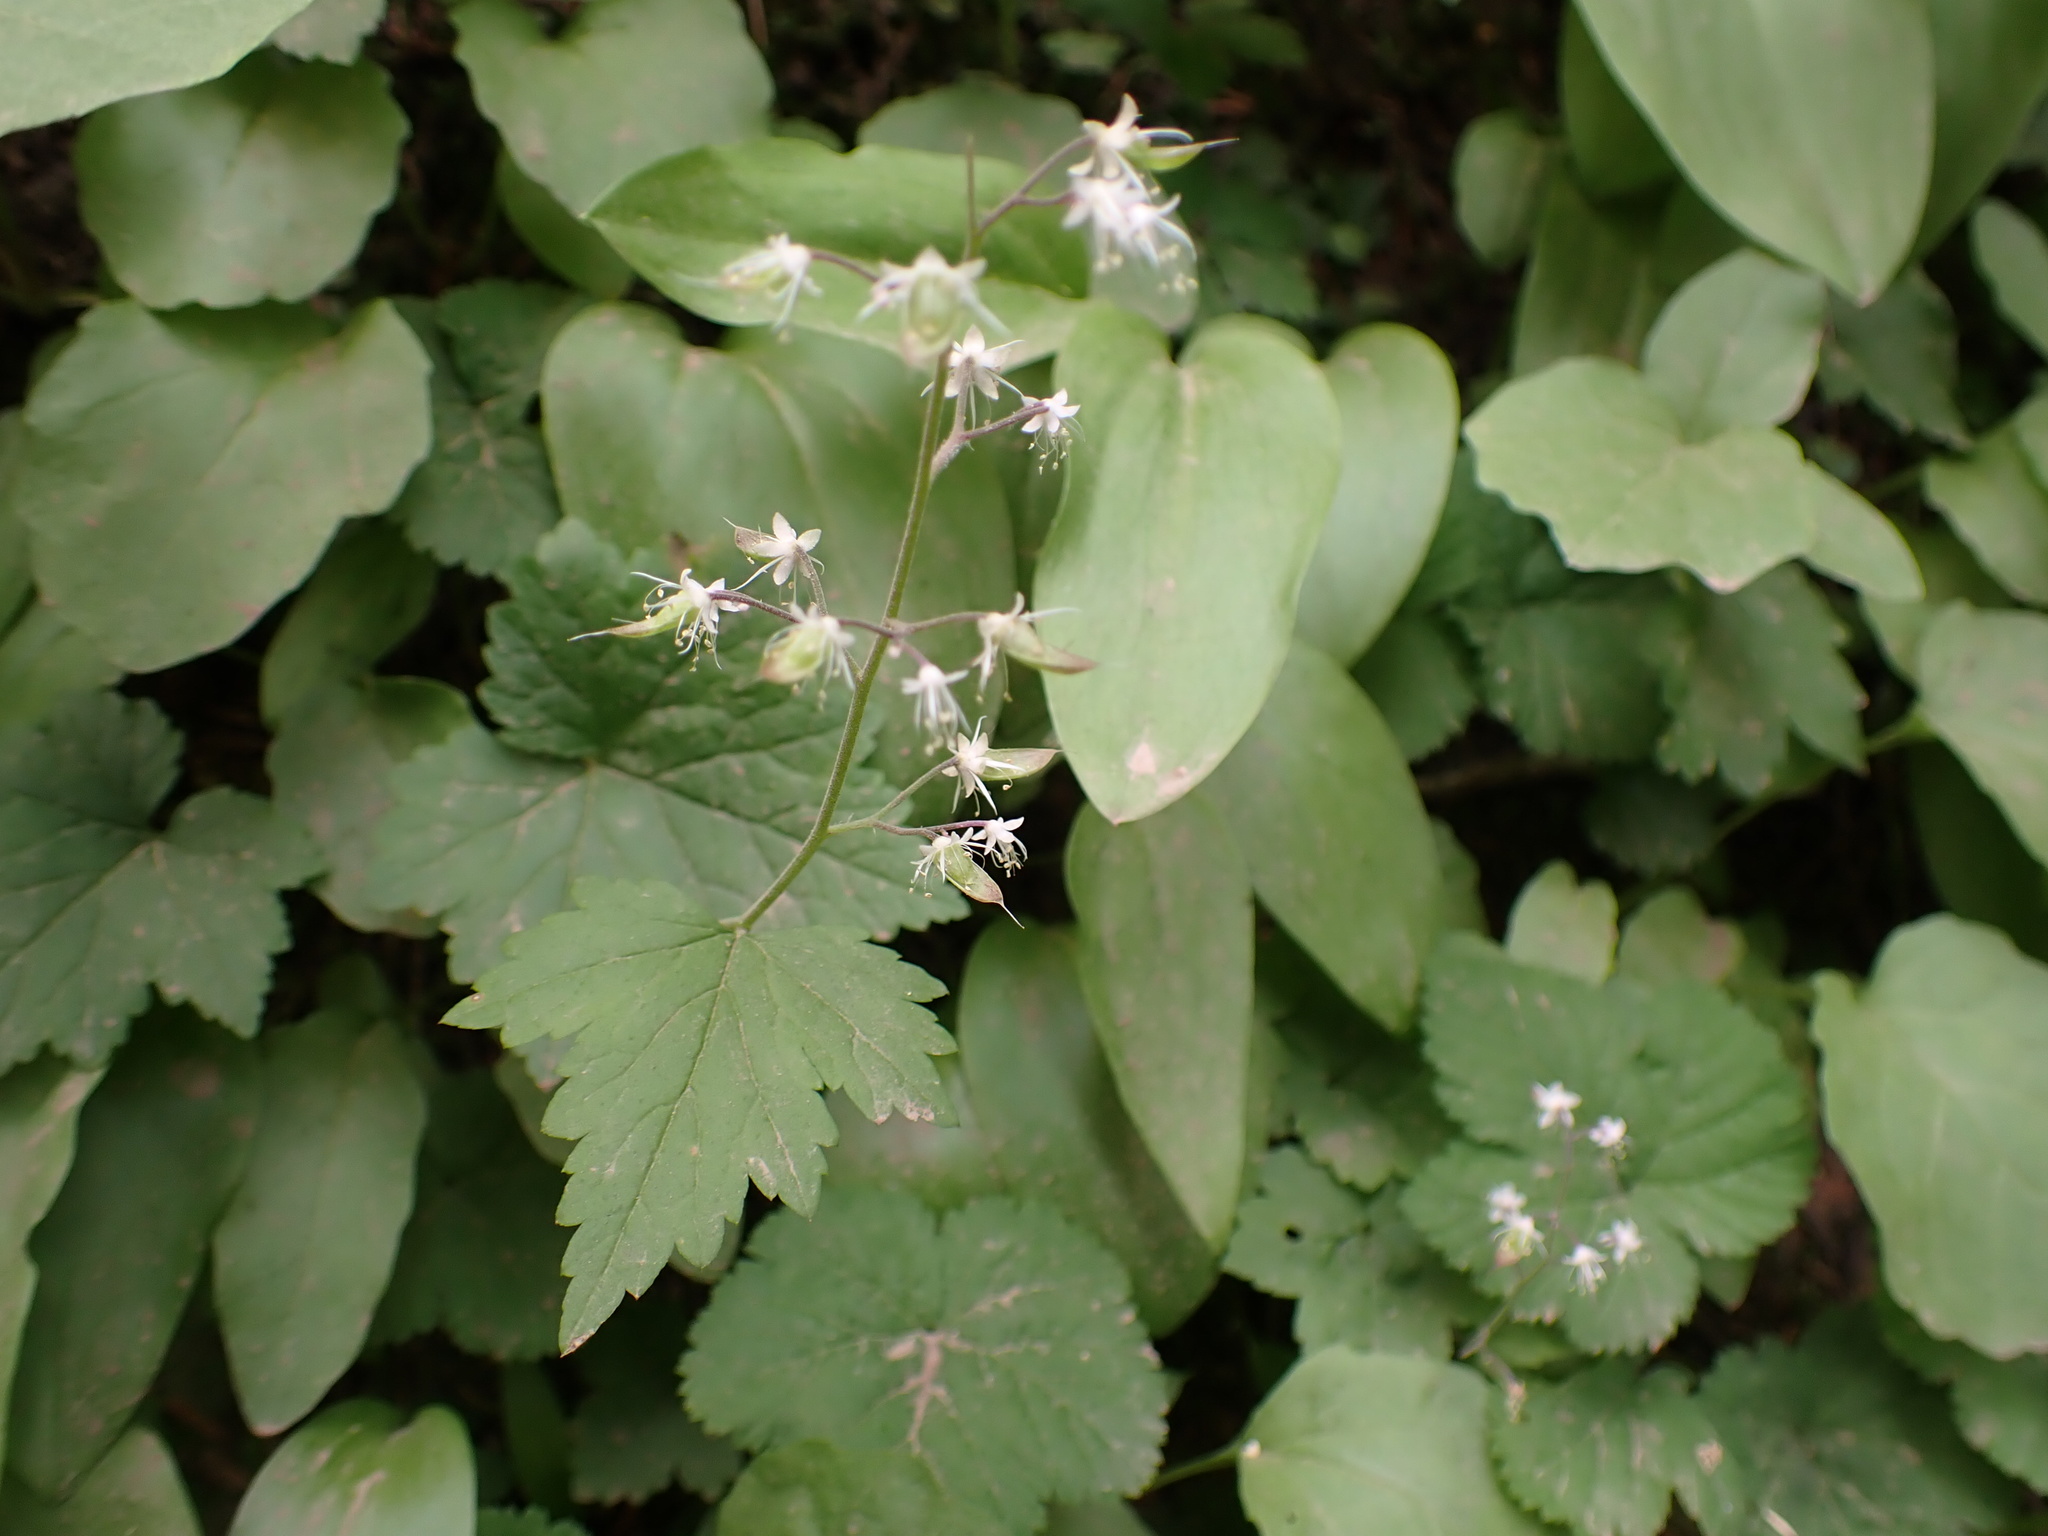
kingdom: Plantae
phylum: Tracheophyta
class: Magnoliopsida
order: Saxifragales
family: Saxifragaceae
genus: Tiarella
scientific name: Tiarella trifoliata
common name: Sugar-scoop
